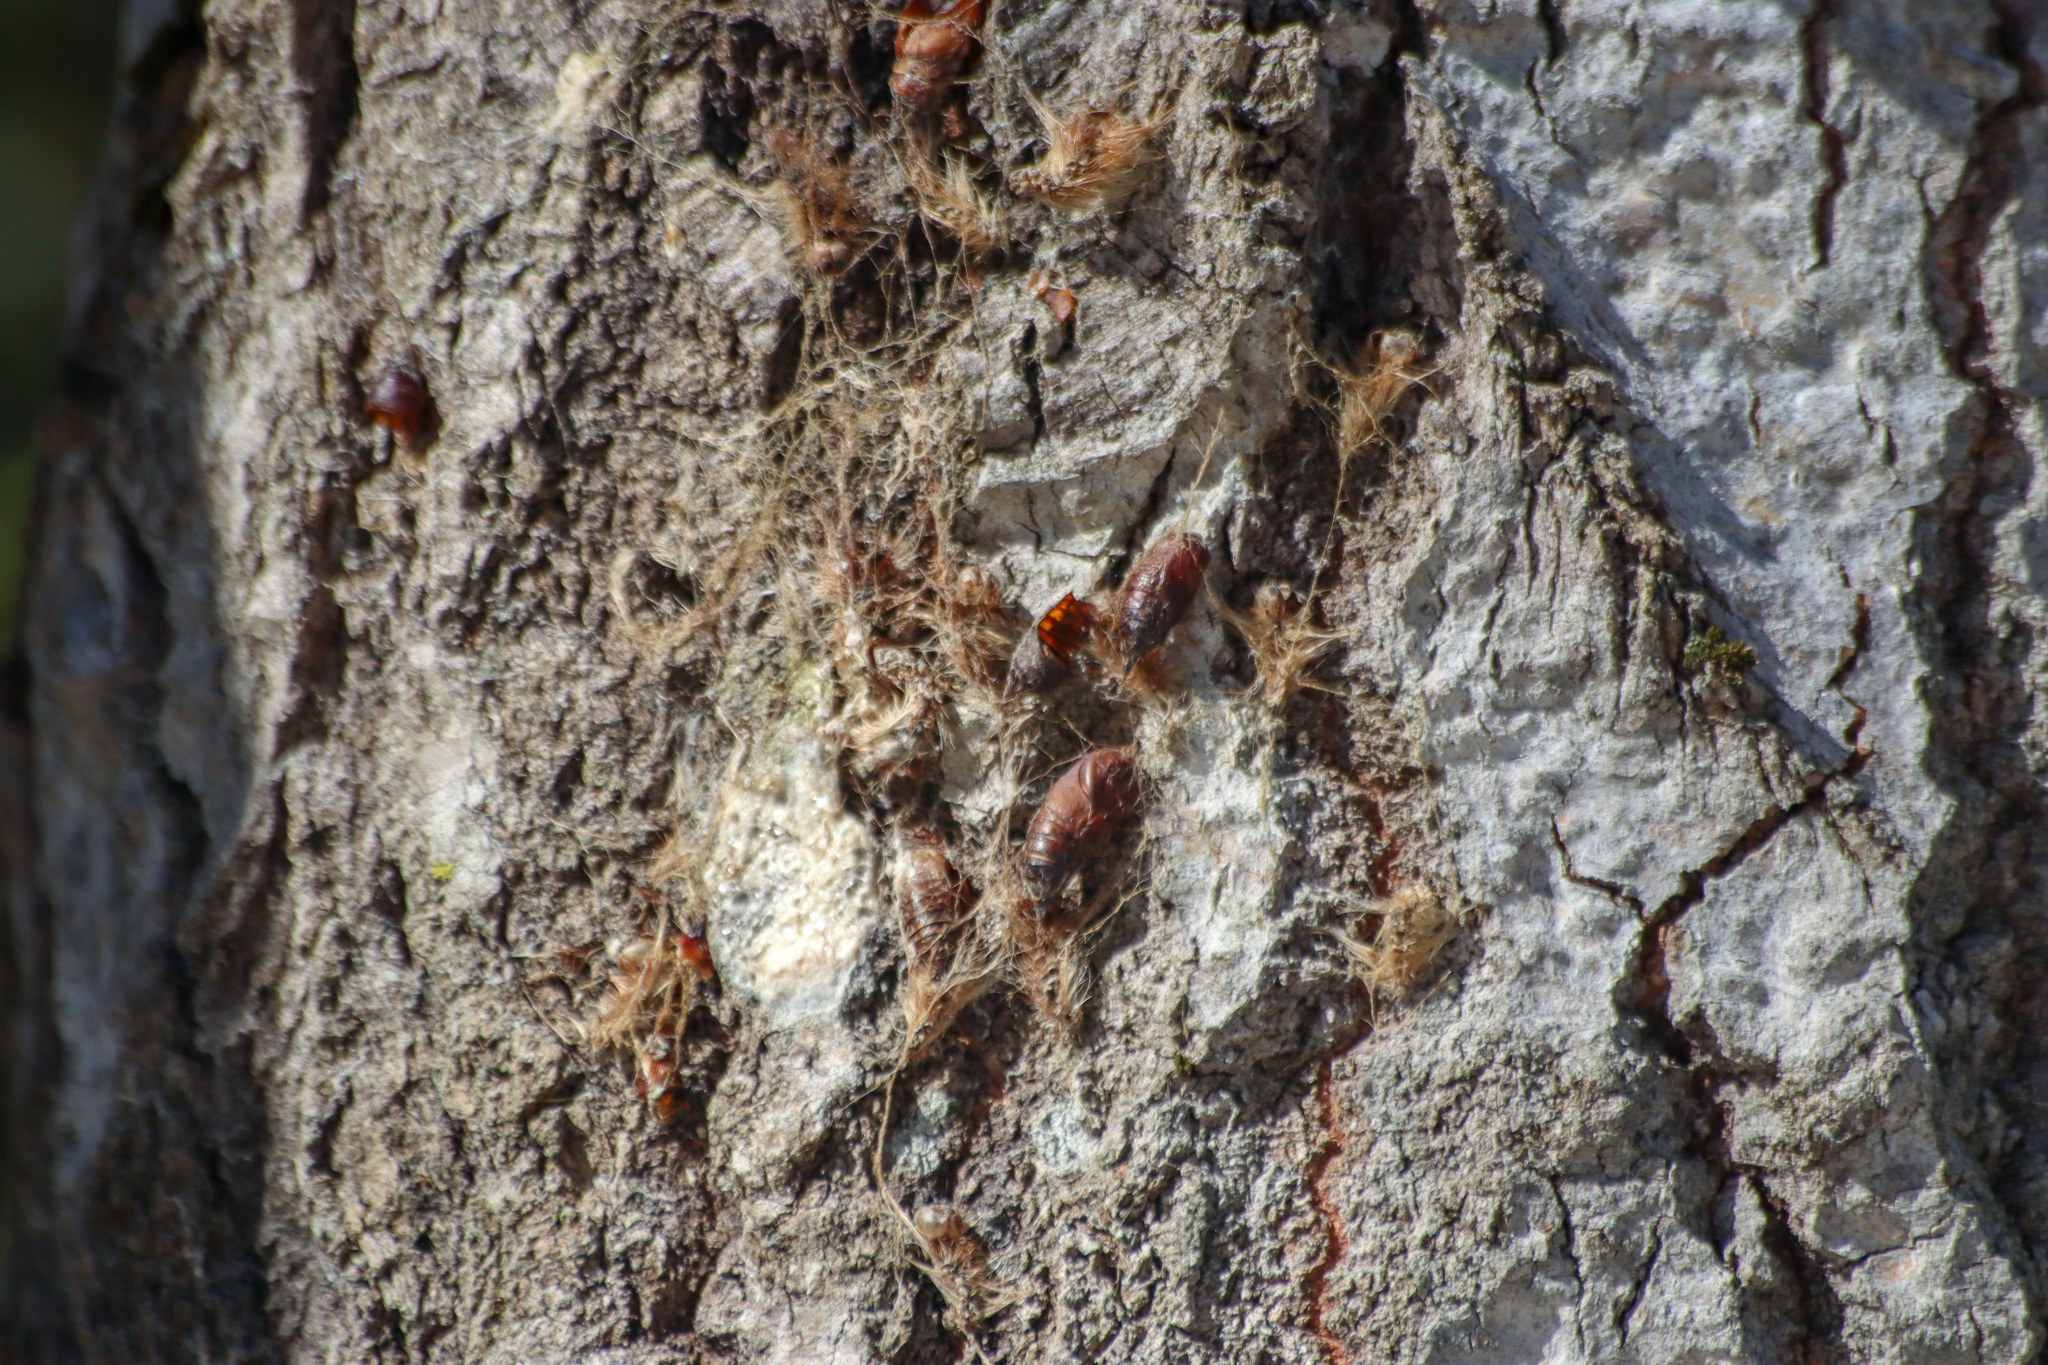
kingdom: Animalia
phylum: Arthropoda
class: Insecta
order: Lepidoptera
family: Erebidae
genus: Lymantria
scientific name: Lymantria dispar
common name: Gypsy moth
